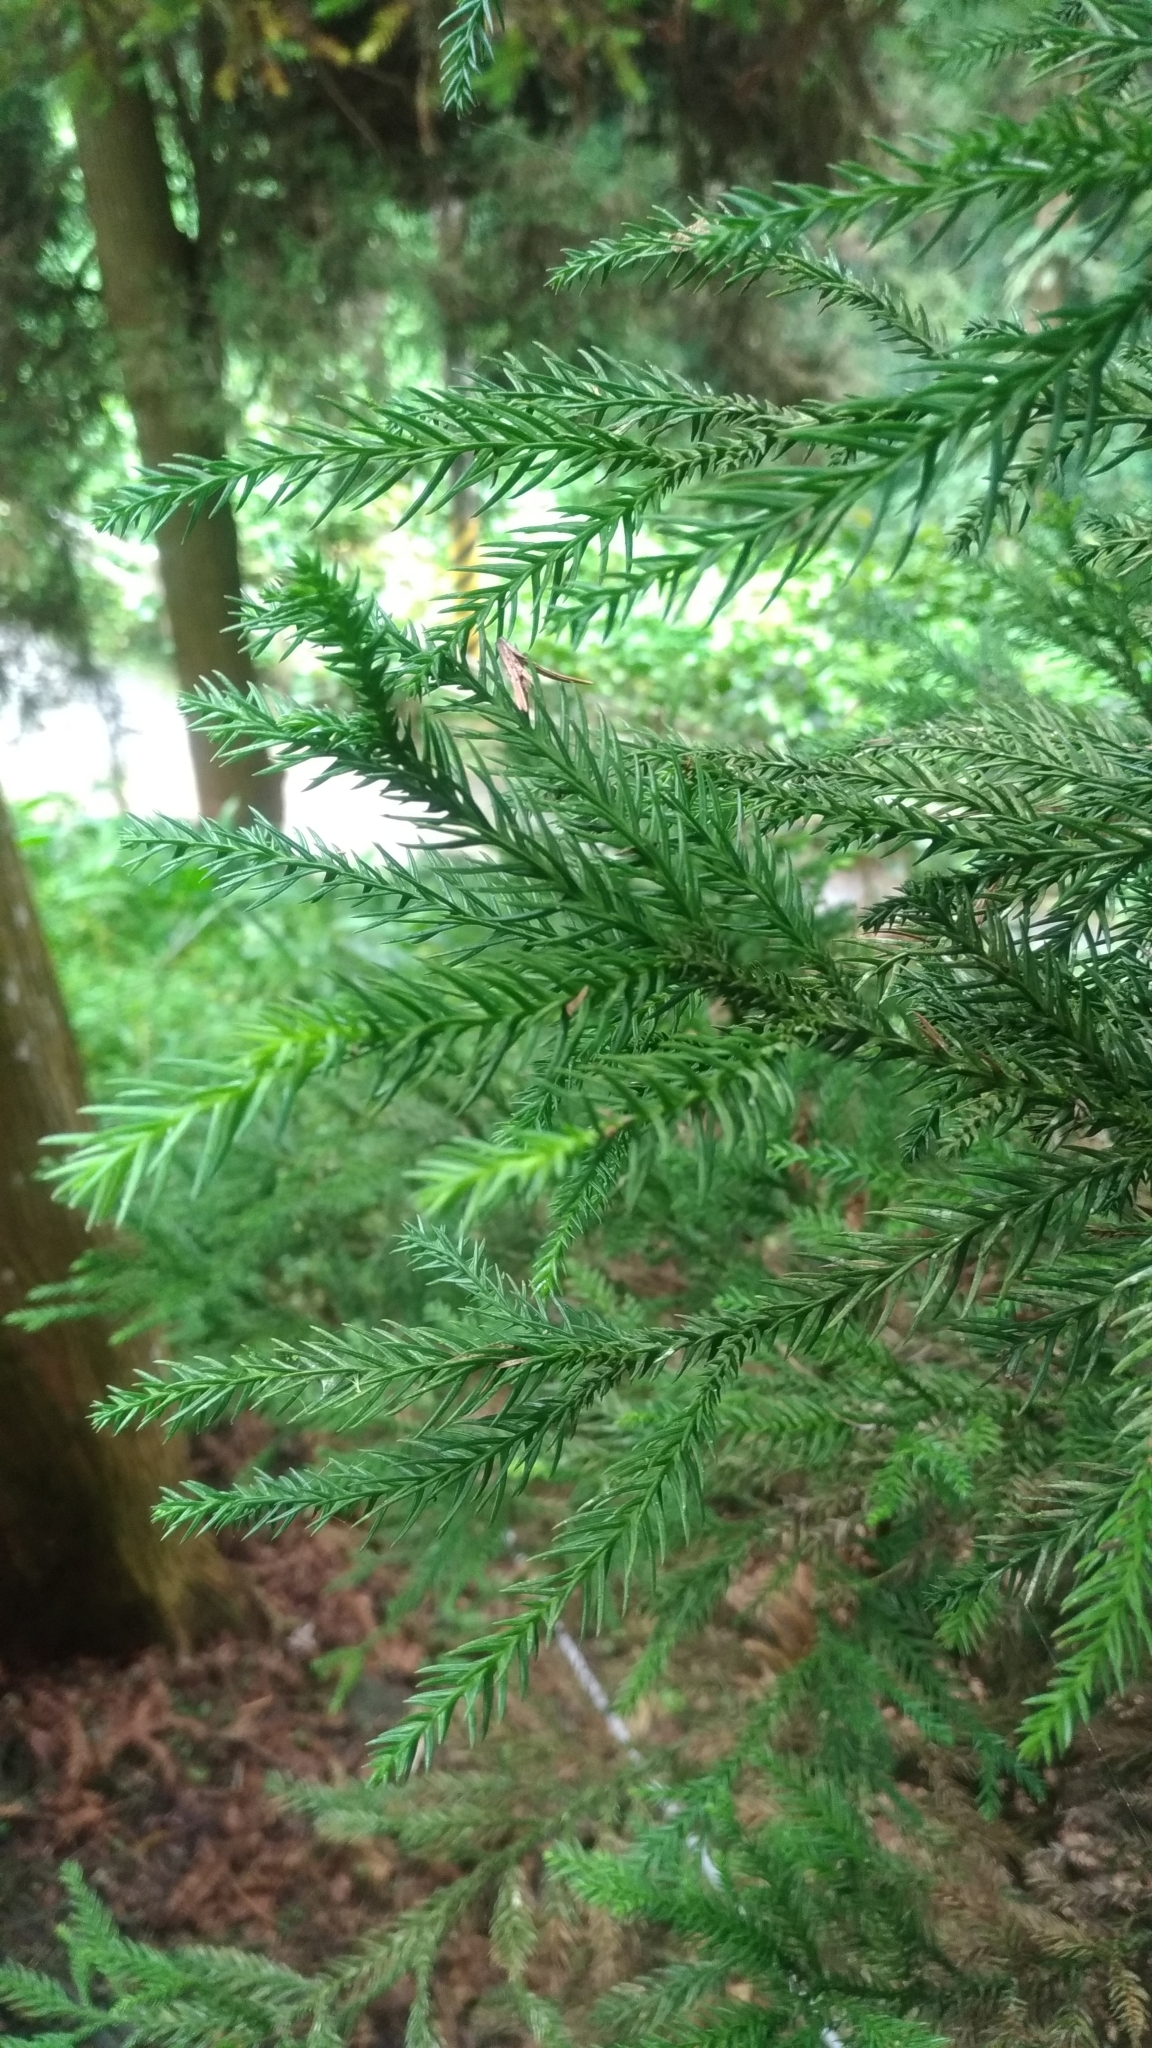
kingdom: Plantae
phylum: Tracheophyta
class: Pinopsida
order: Pinales
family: Cupressaceae
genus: Cryptomeria
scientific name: Cryptomeria japonica
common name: Japanese cedar
